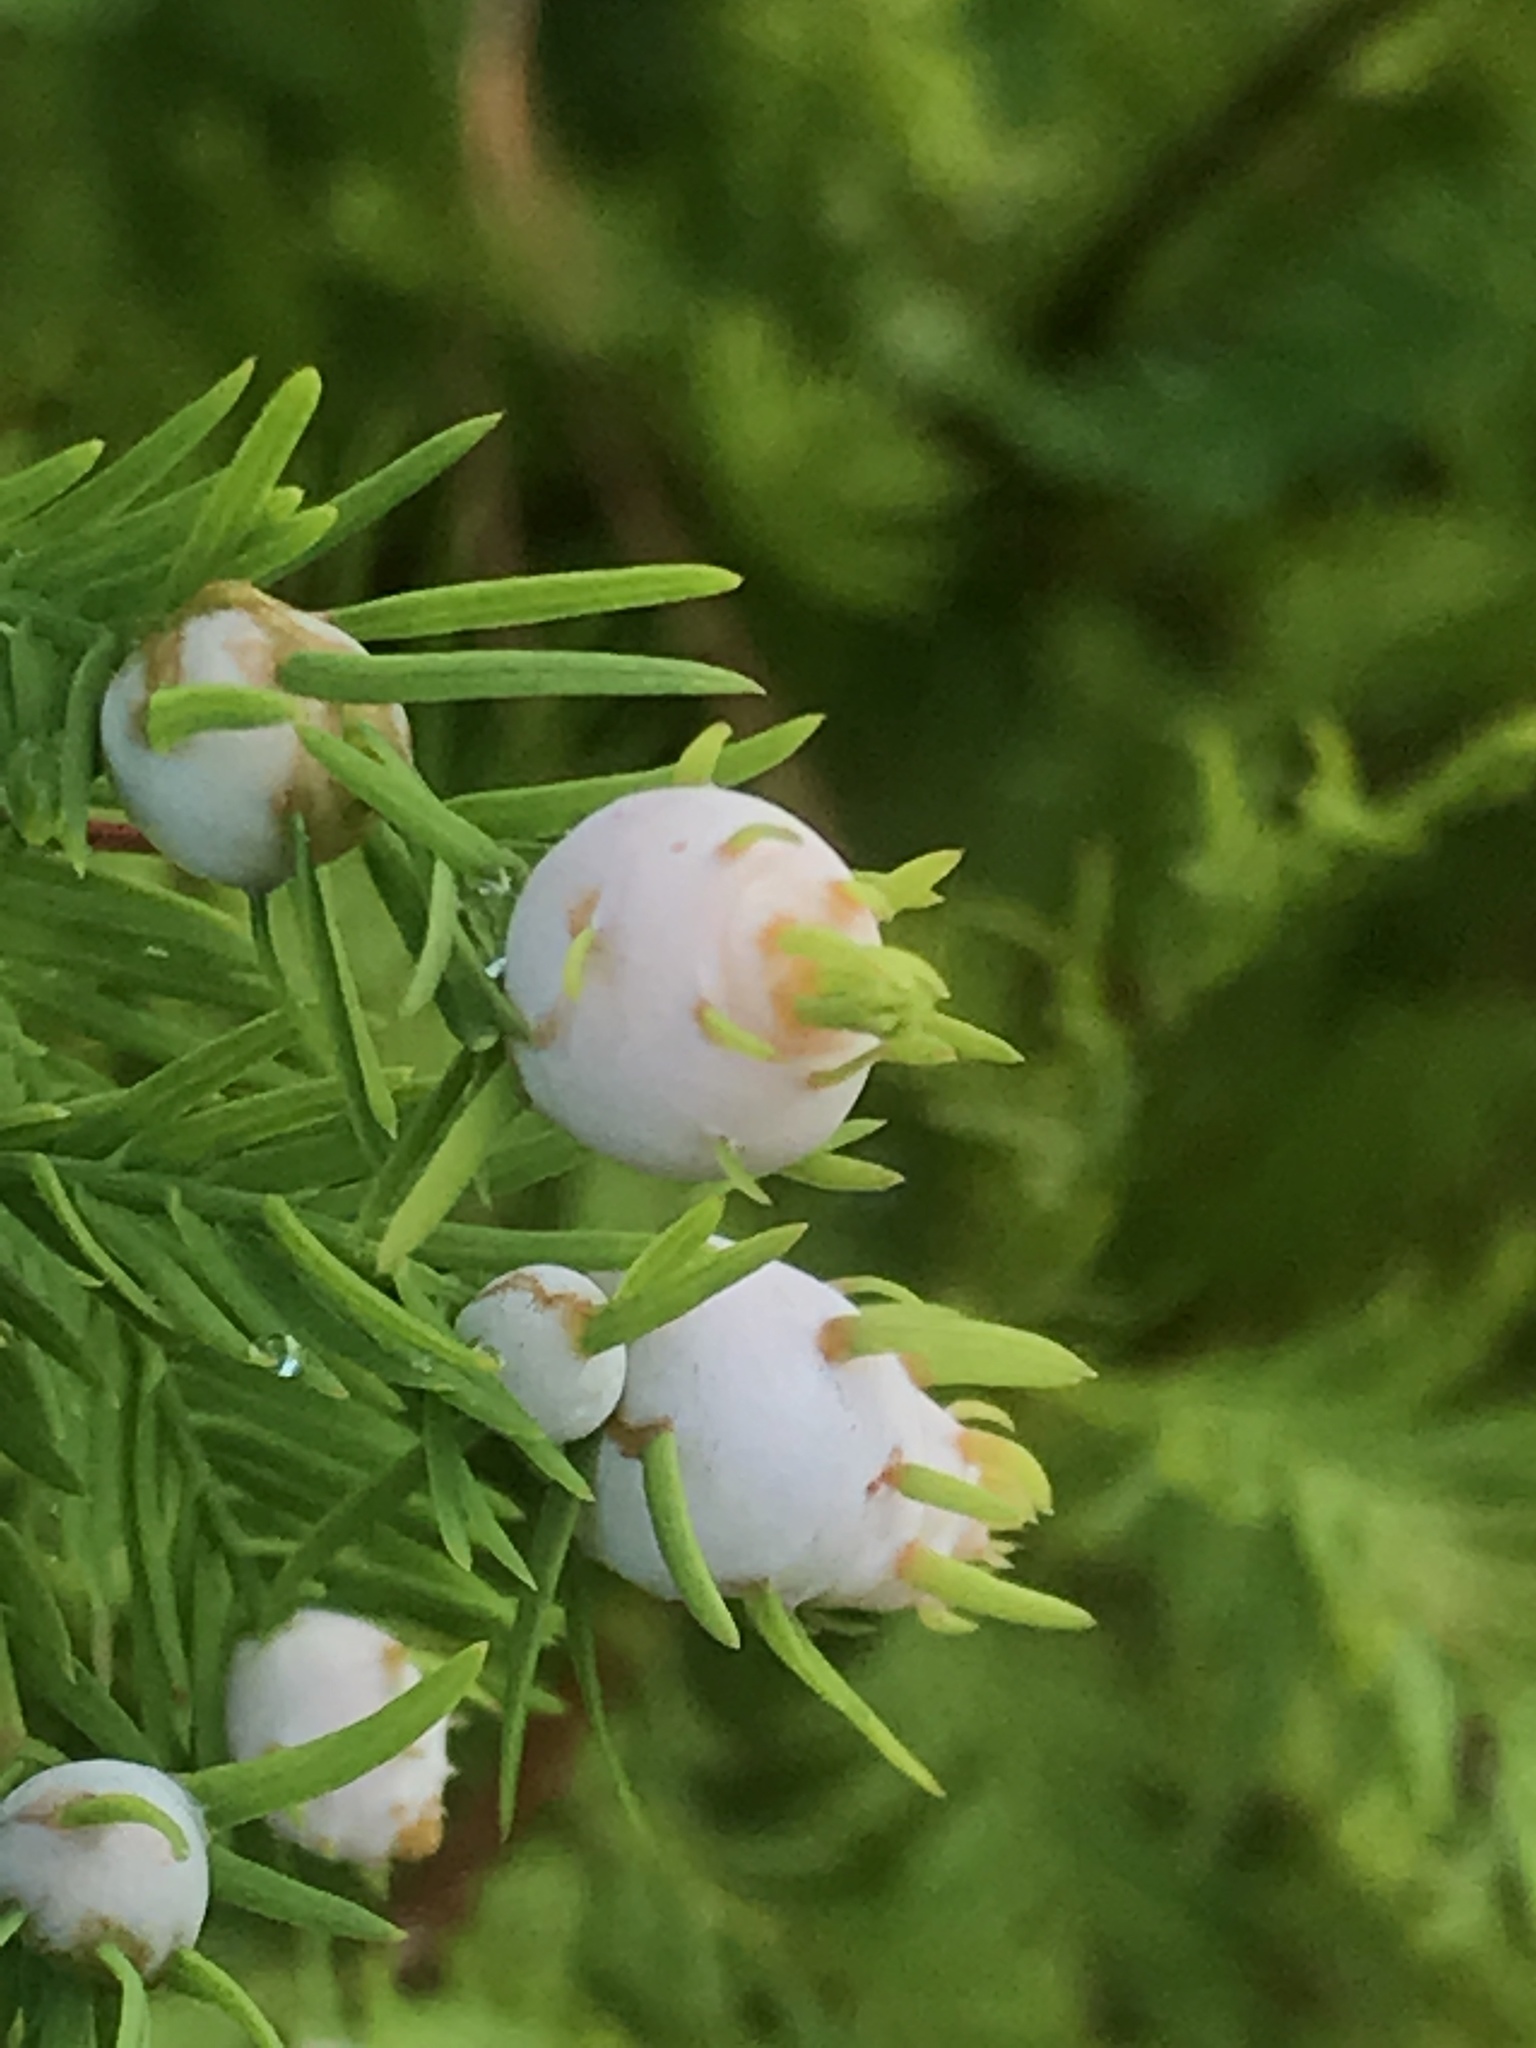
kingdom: Animalia
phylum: Arthropoda
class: Insecta
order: Diptera
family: Cecidomyiidae
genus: Taxodiomyia
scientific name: Taxodiomyia cupressiananassa
